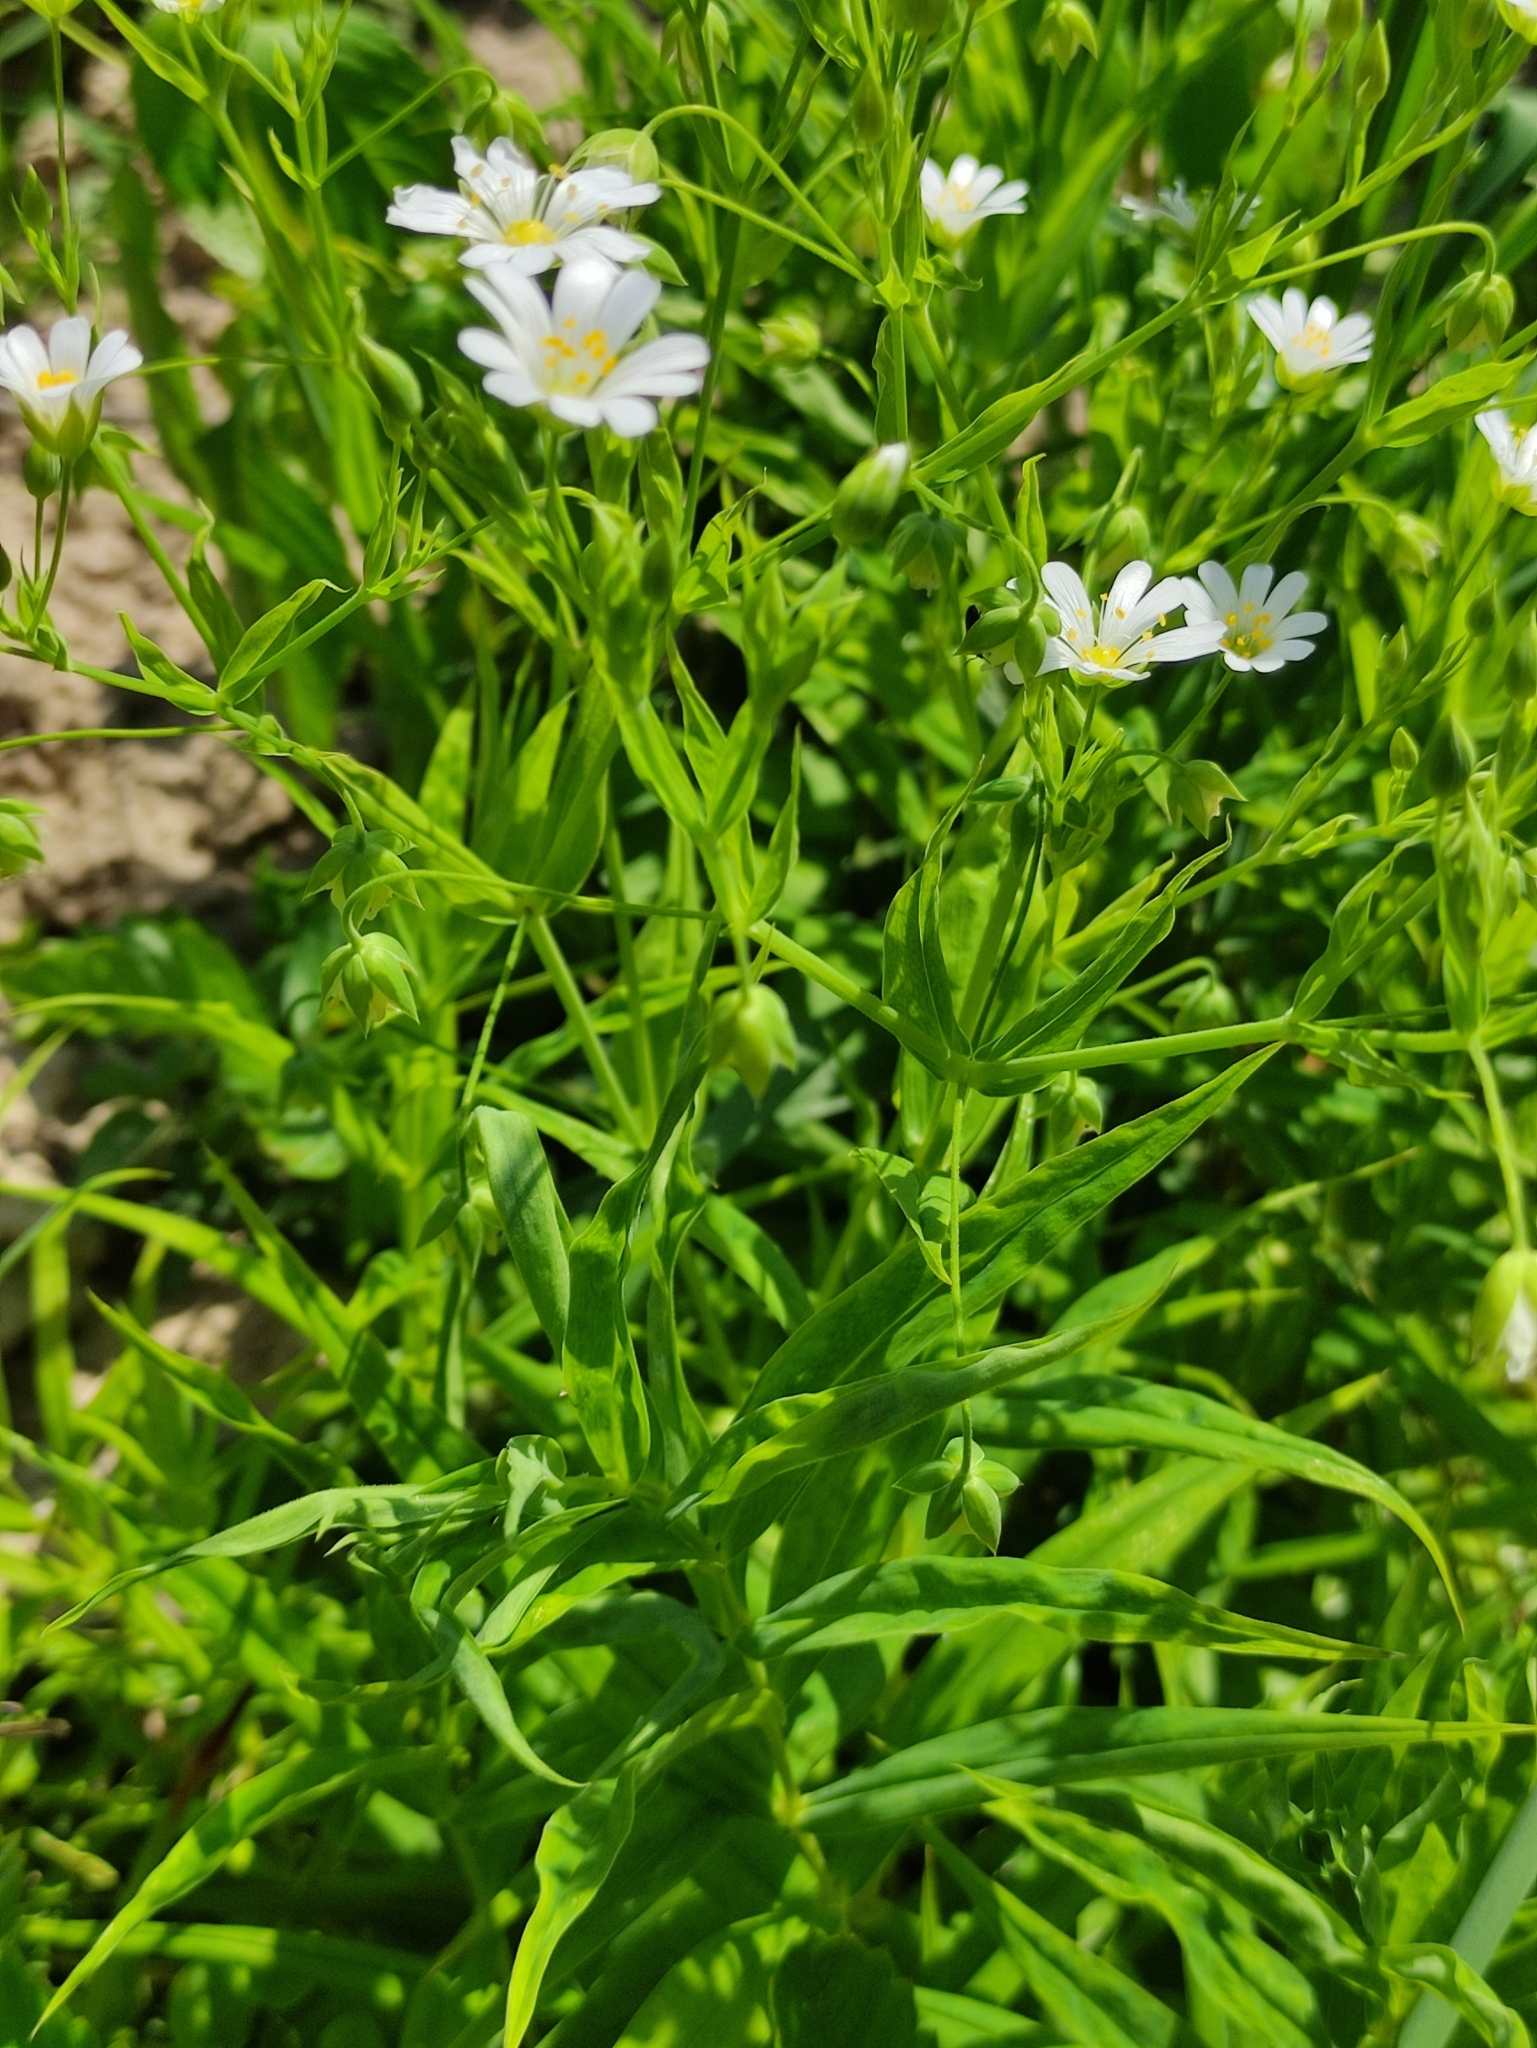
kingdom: Plantae
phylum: Tracheophyta
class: Magnoliopsida
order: Caryophyllales
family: Caryophyllaceae
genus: Rabelera
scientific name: Rabelera holostea
